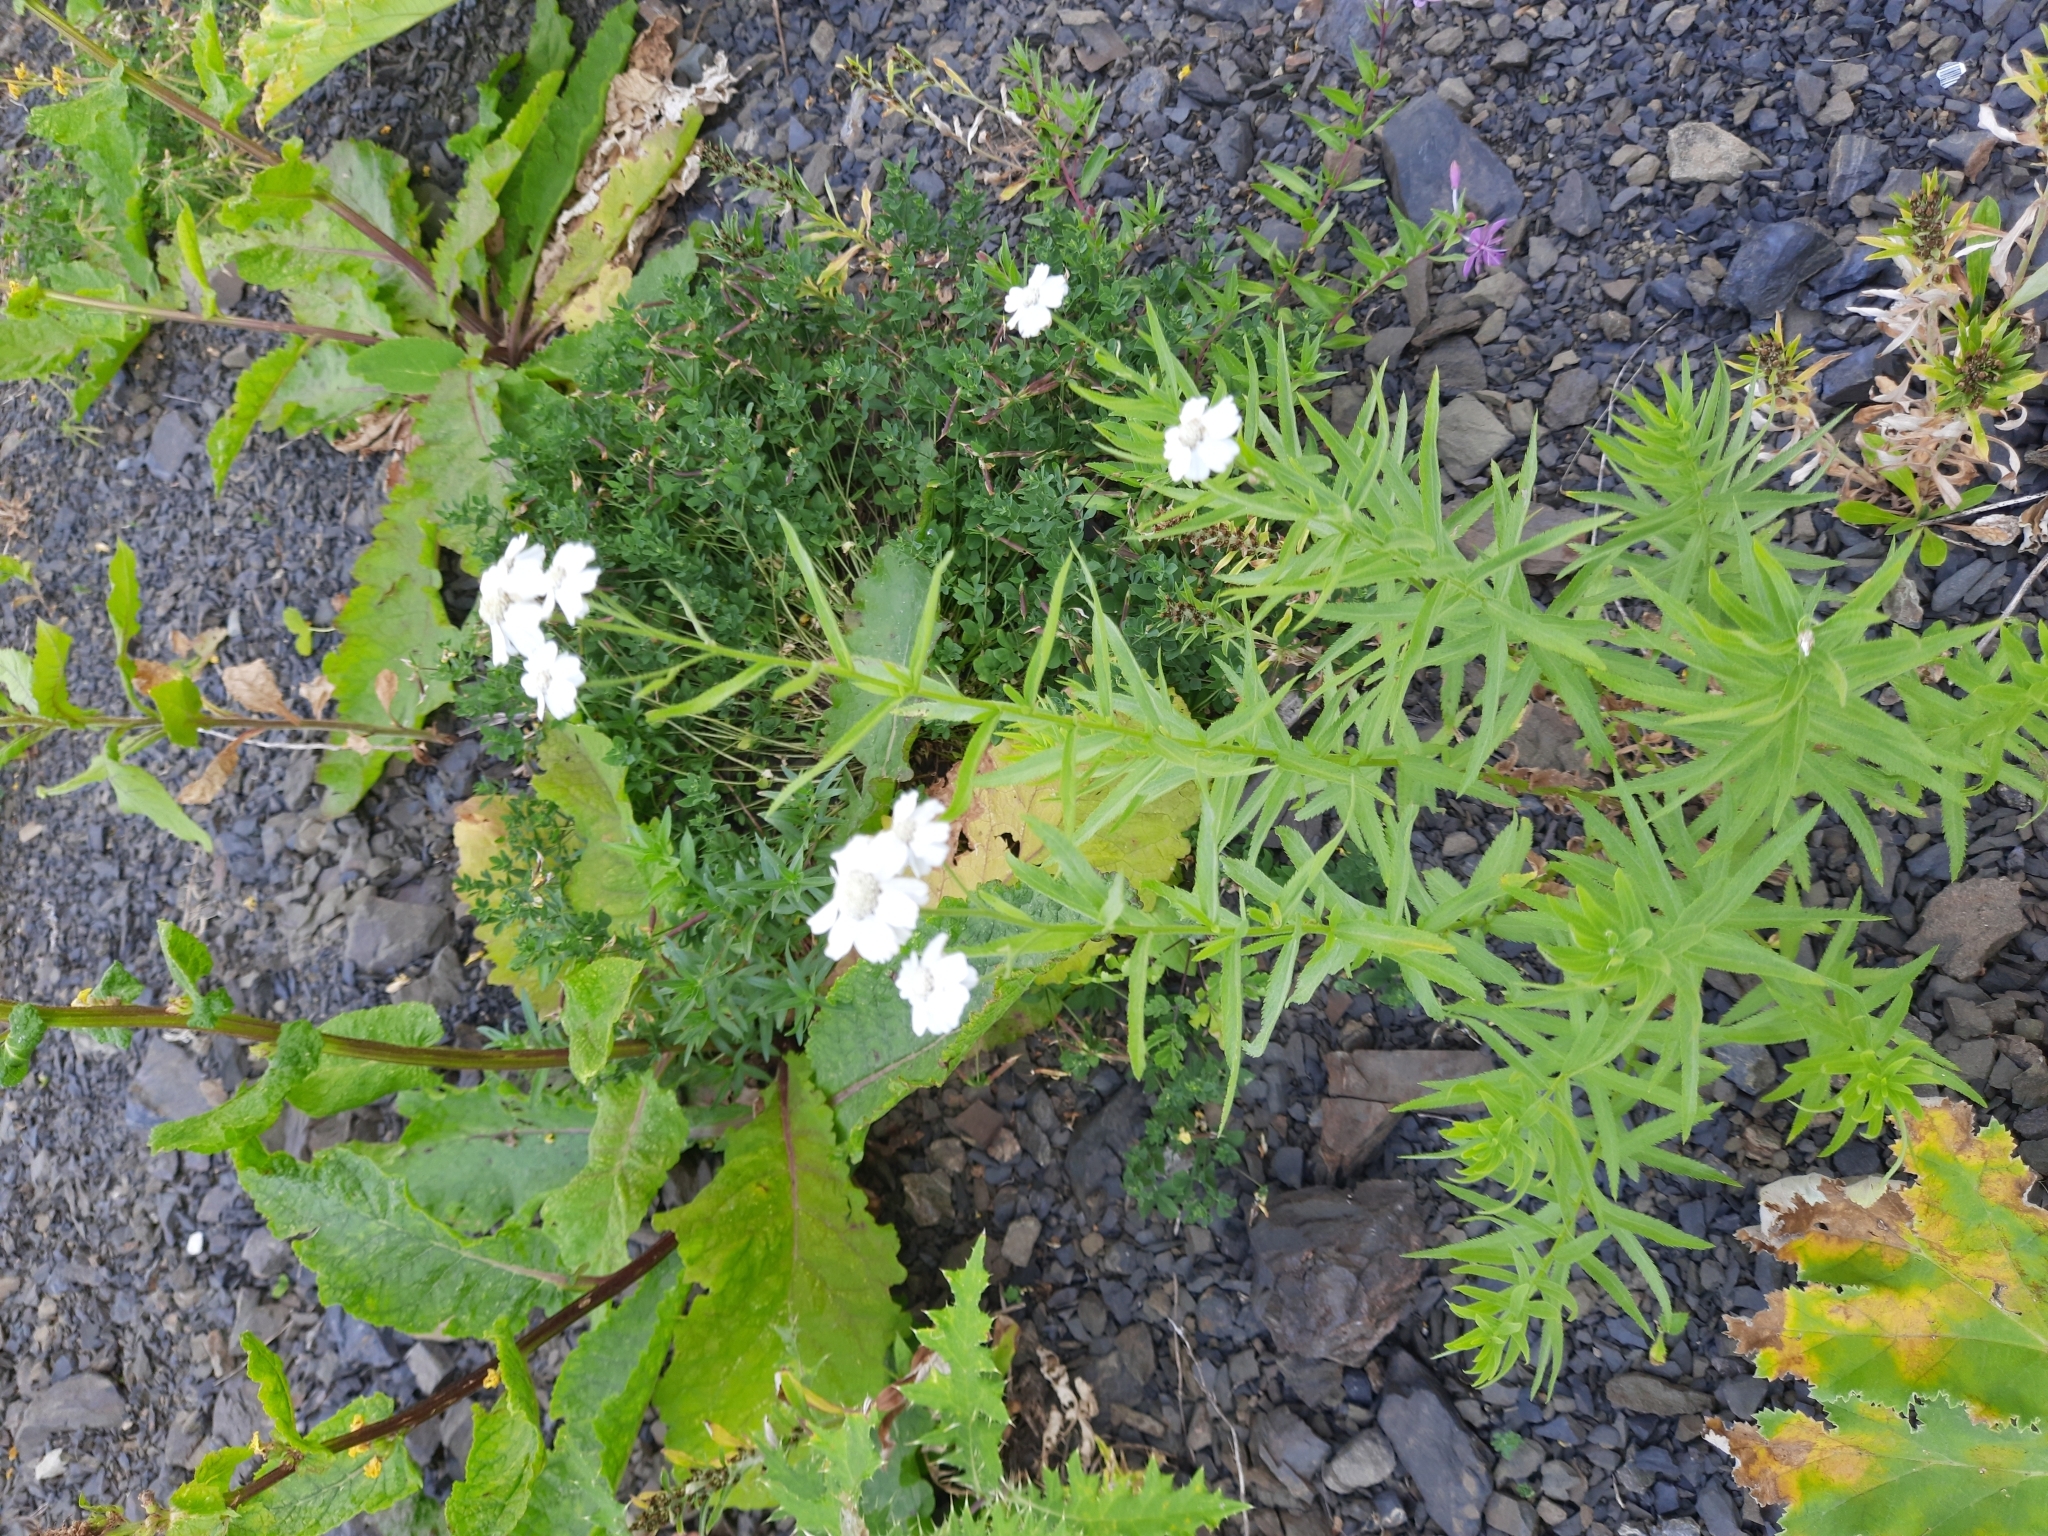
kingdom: Plantae
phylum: Tracheophyta
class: Magnoliopsida
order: Asterales
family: Asteraceae
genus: Achillea
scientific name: Achillea biserrata
